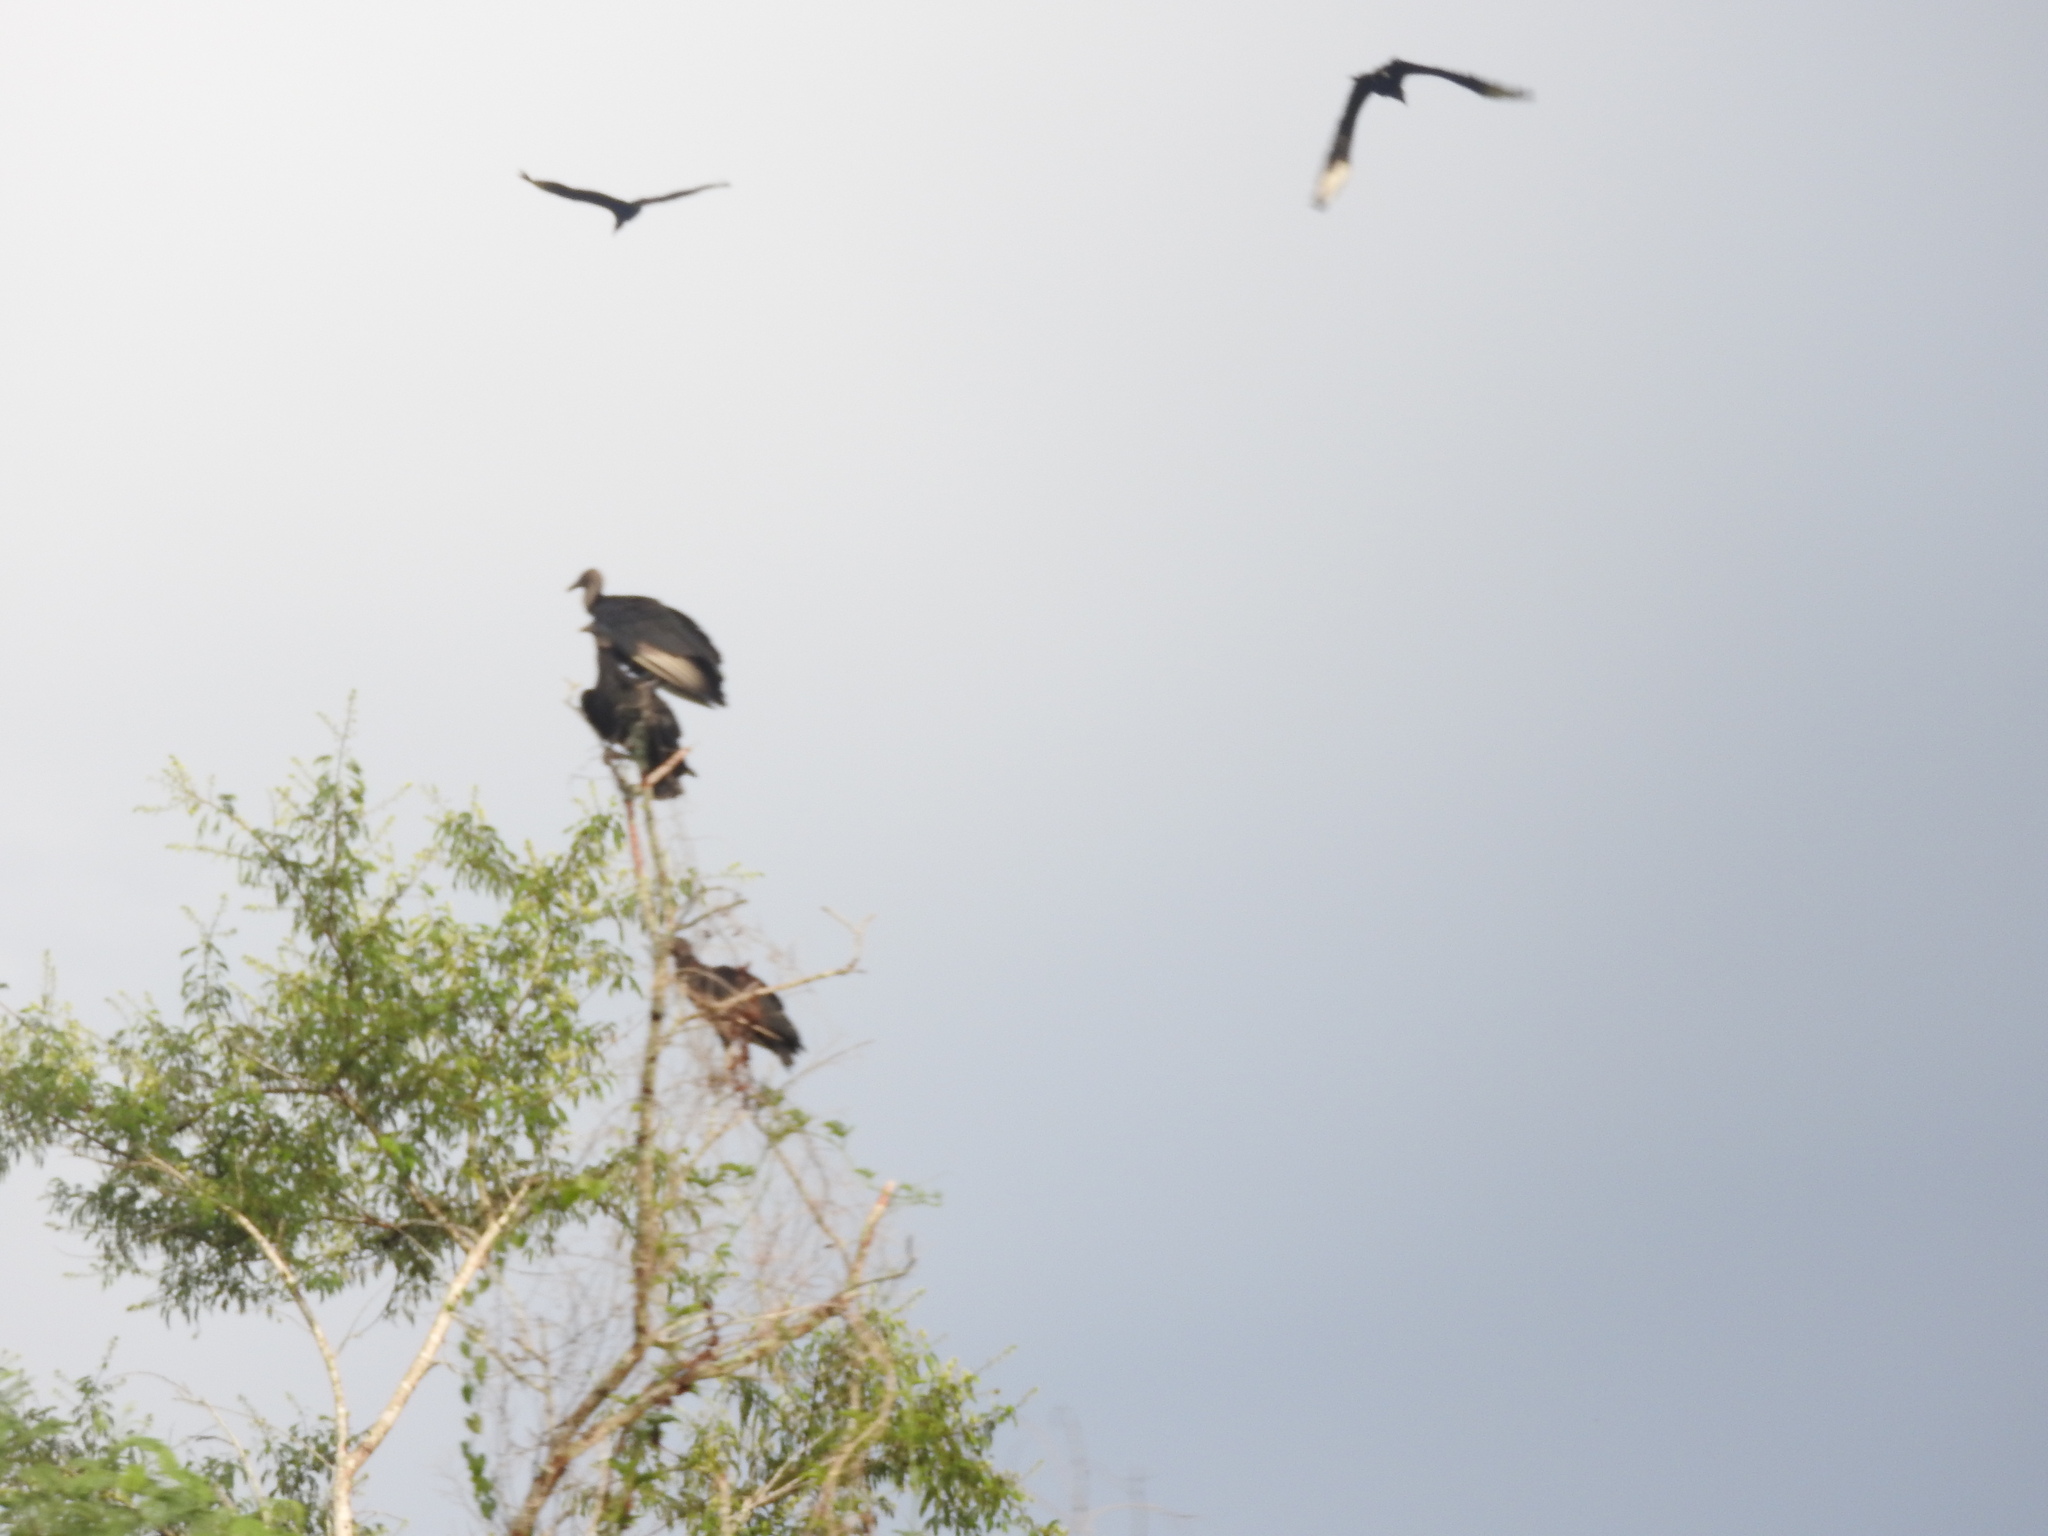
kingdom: Animalia
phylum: Chordata
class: Aves
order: Accipitriformes
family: Cathartidae
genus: Coragyps
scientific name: Coragyps atratus
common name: Black vulture
